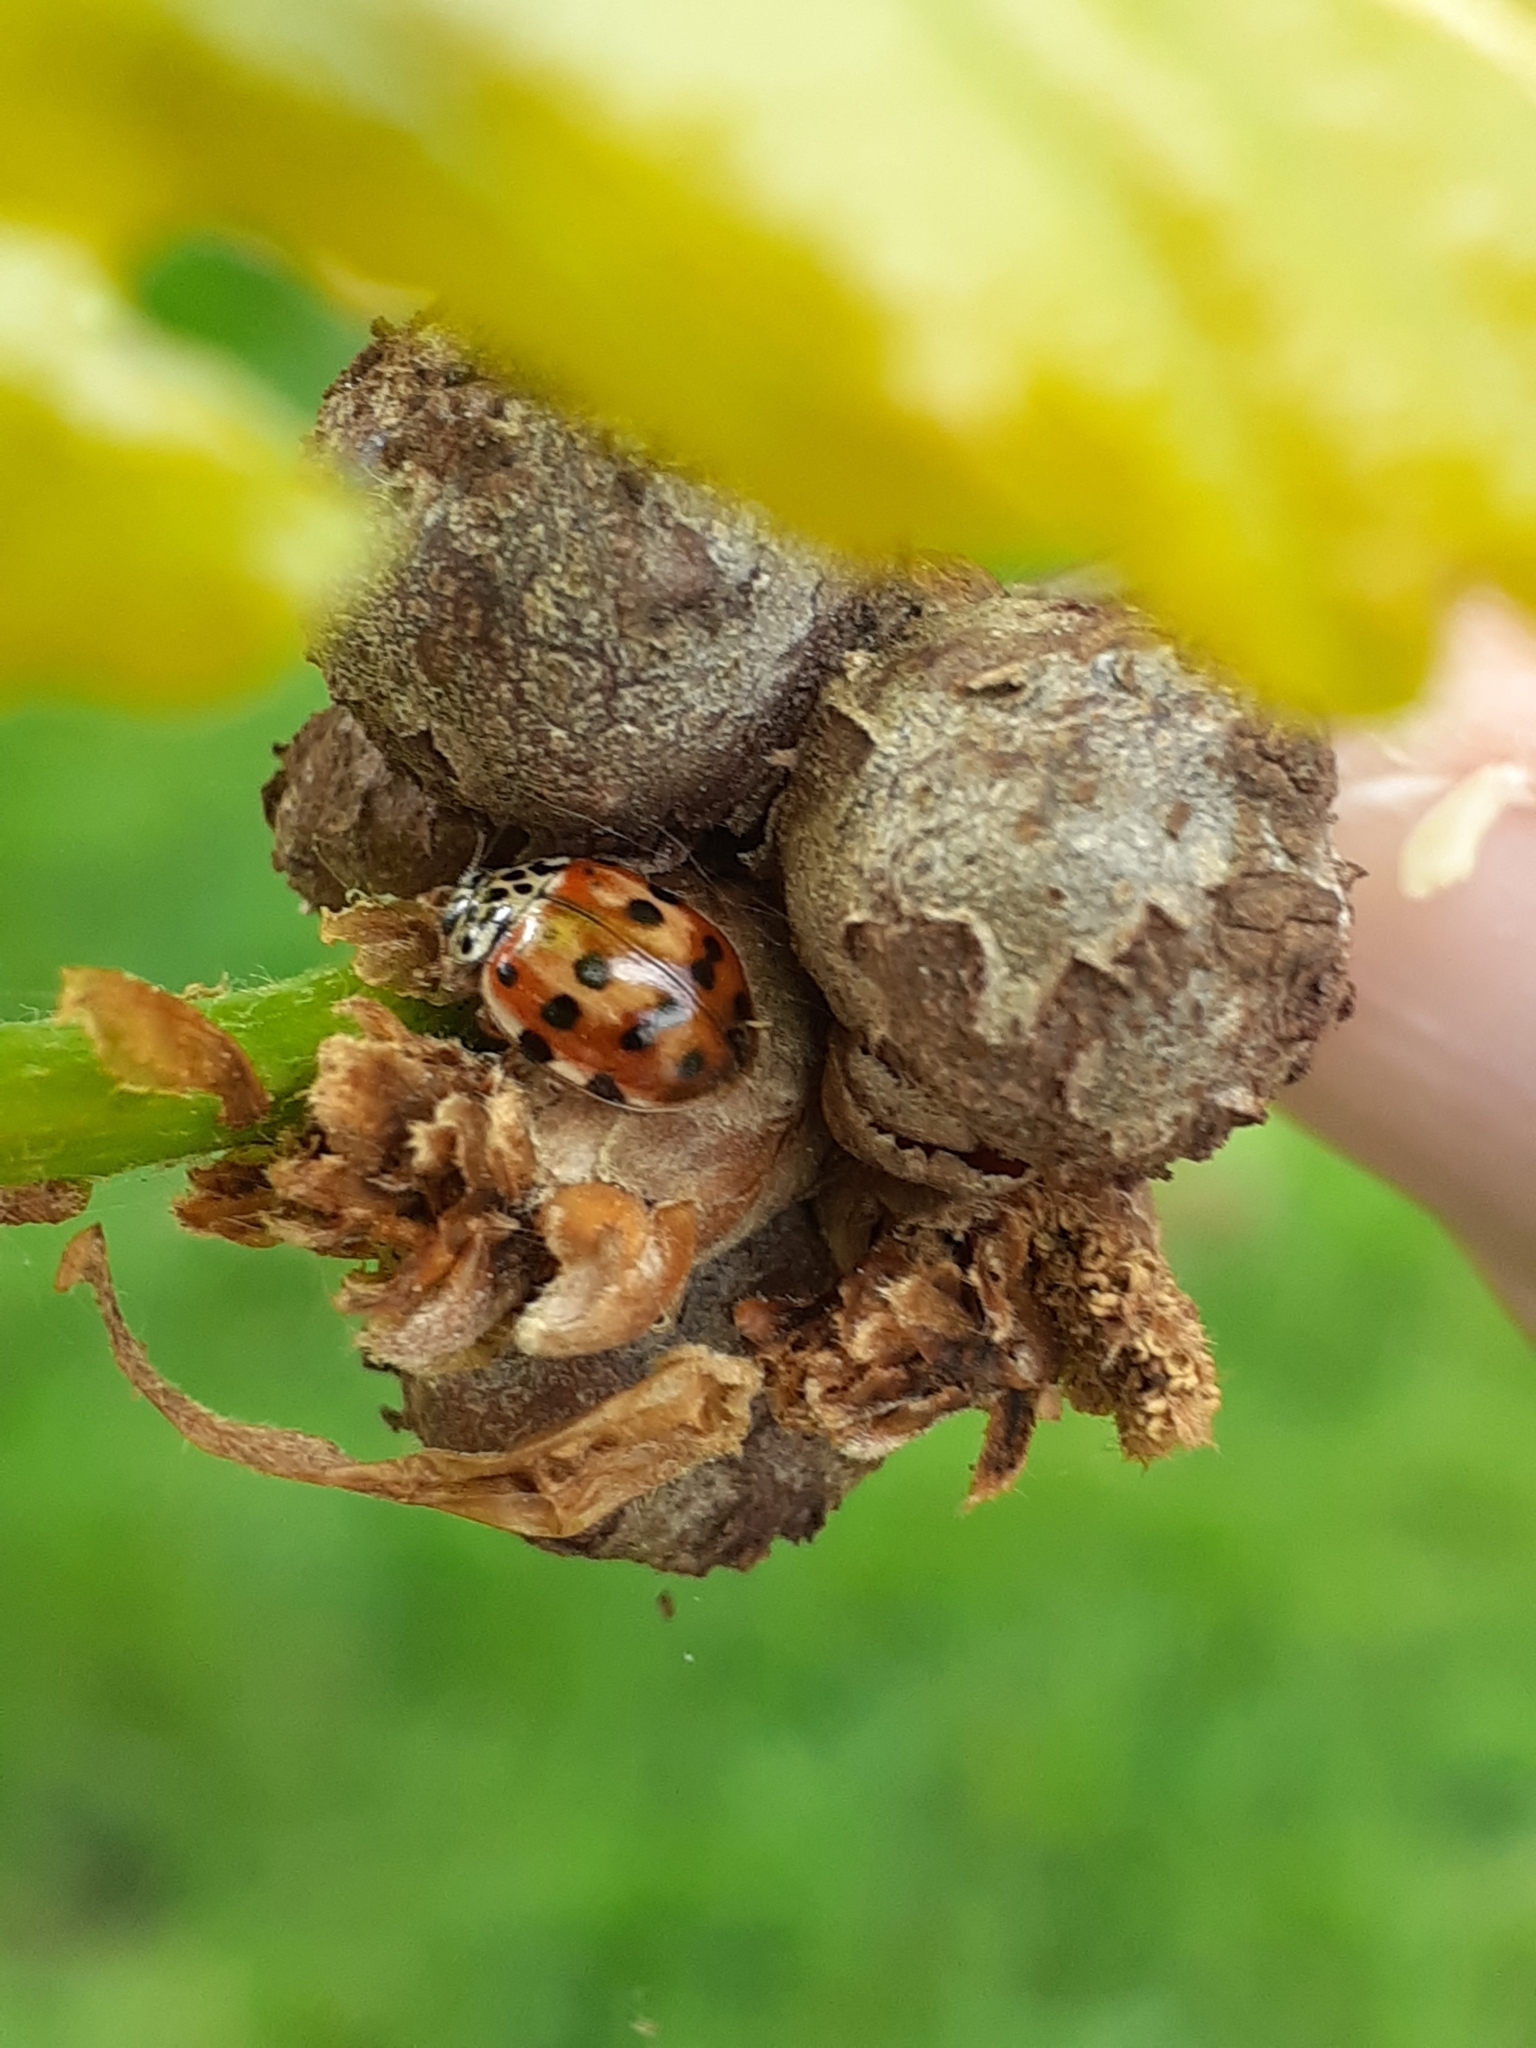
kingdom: Animalia
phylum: Arthropoda
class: Insecta
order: Coleoptera
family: Coccinellidae
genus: Harmonia
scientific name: Harmonia quadripunctata
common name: Cream-streaked ladybird
